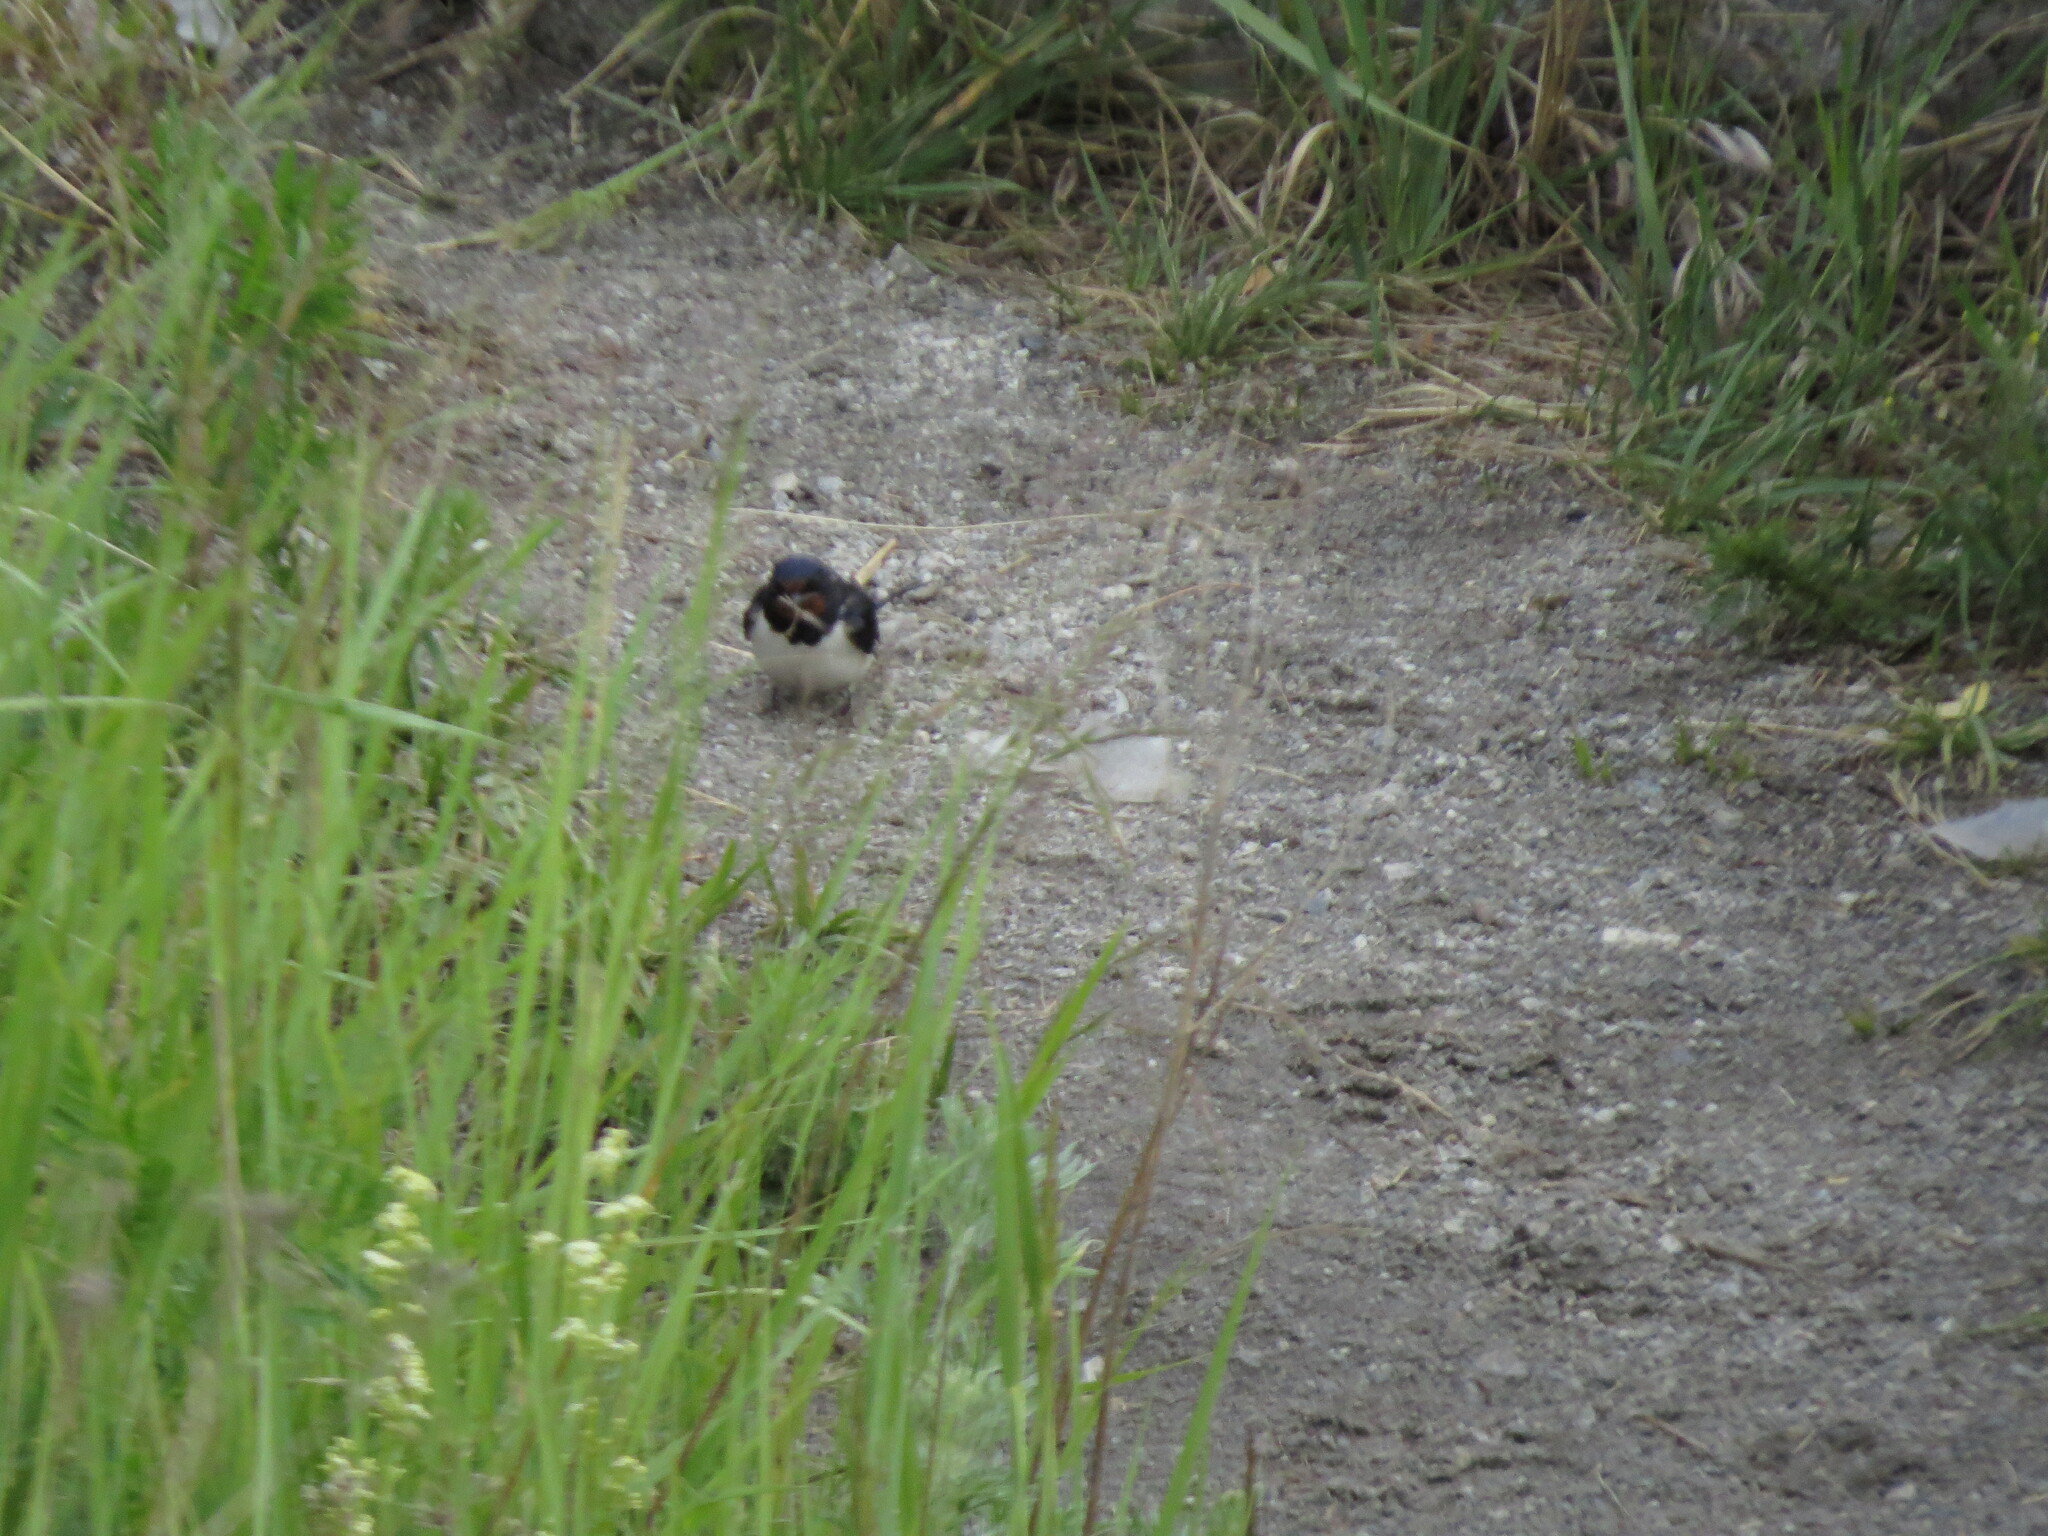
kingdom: Animalia
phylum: Chordata
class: Aves
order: Passeriformes
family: Hirundinidae
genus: Hirundo
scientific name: Hirundo rustica
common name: Barn swallow
